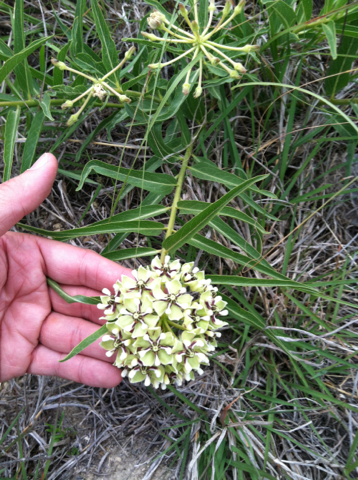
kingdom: Plantae
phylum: Tracheophyta
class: Magnoliopsida
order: Gentianales
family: Apocynaceae
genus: Asclepias
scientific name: Asclepias asperula
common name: Antelope horns
